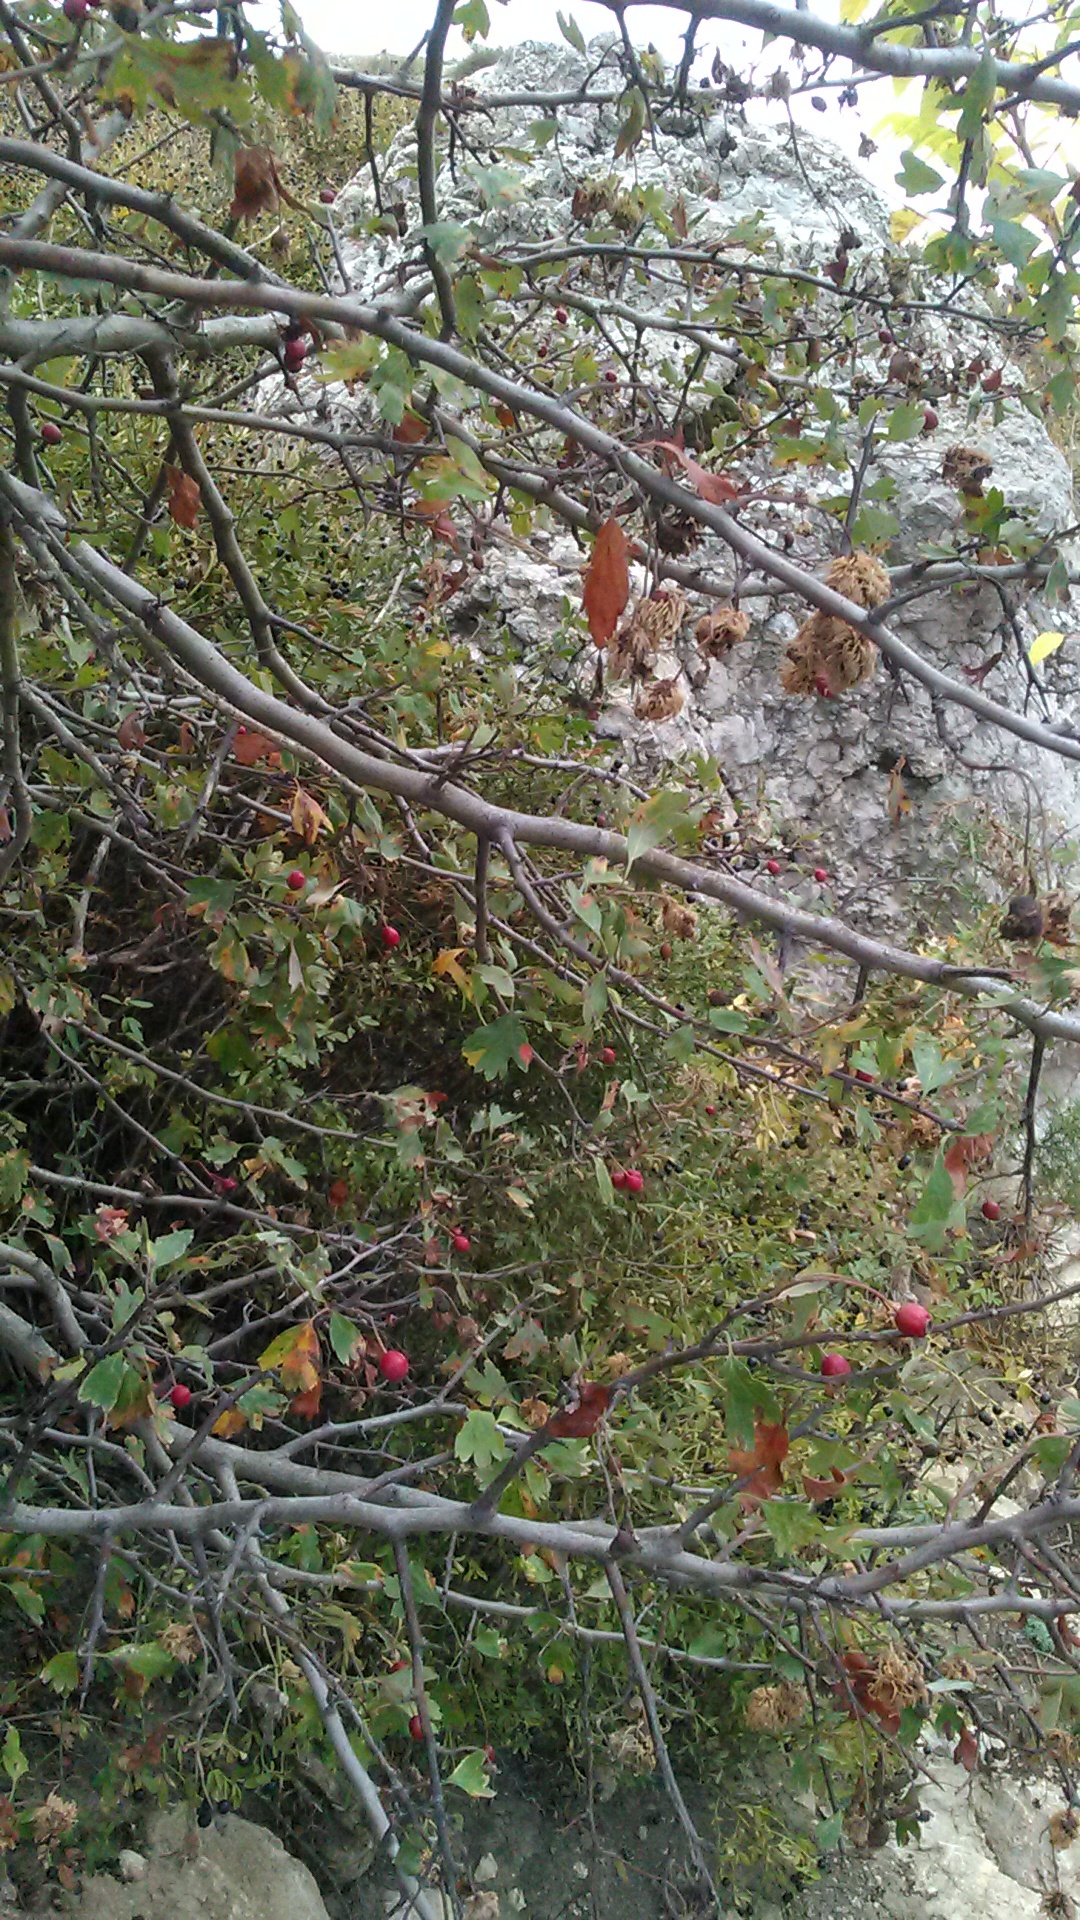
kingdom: Plantae
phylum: Tracheophyta
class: Magnoliopsida
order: Rosales
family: Rosaceae
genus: Crataegus
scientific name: Crataegus monogyna
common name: Hawthorn
